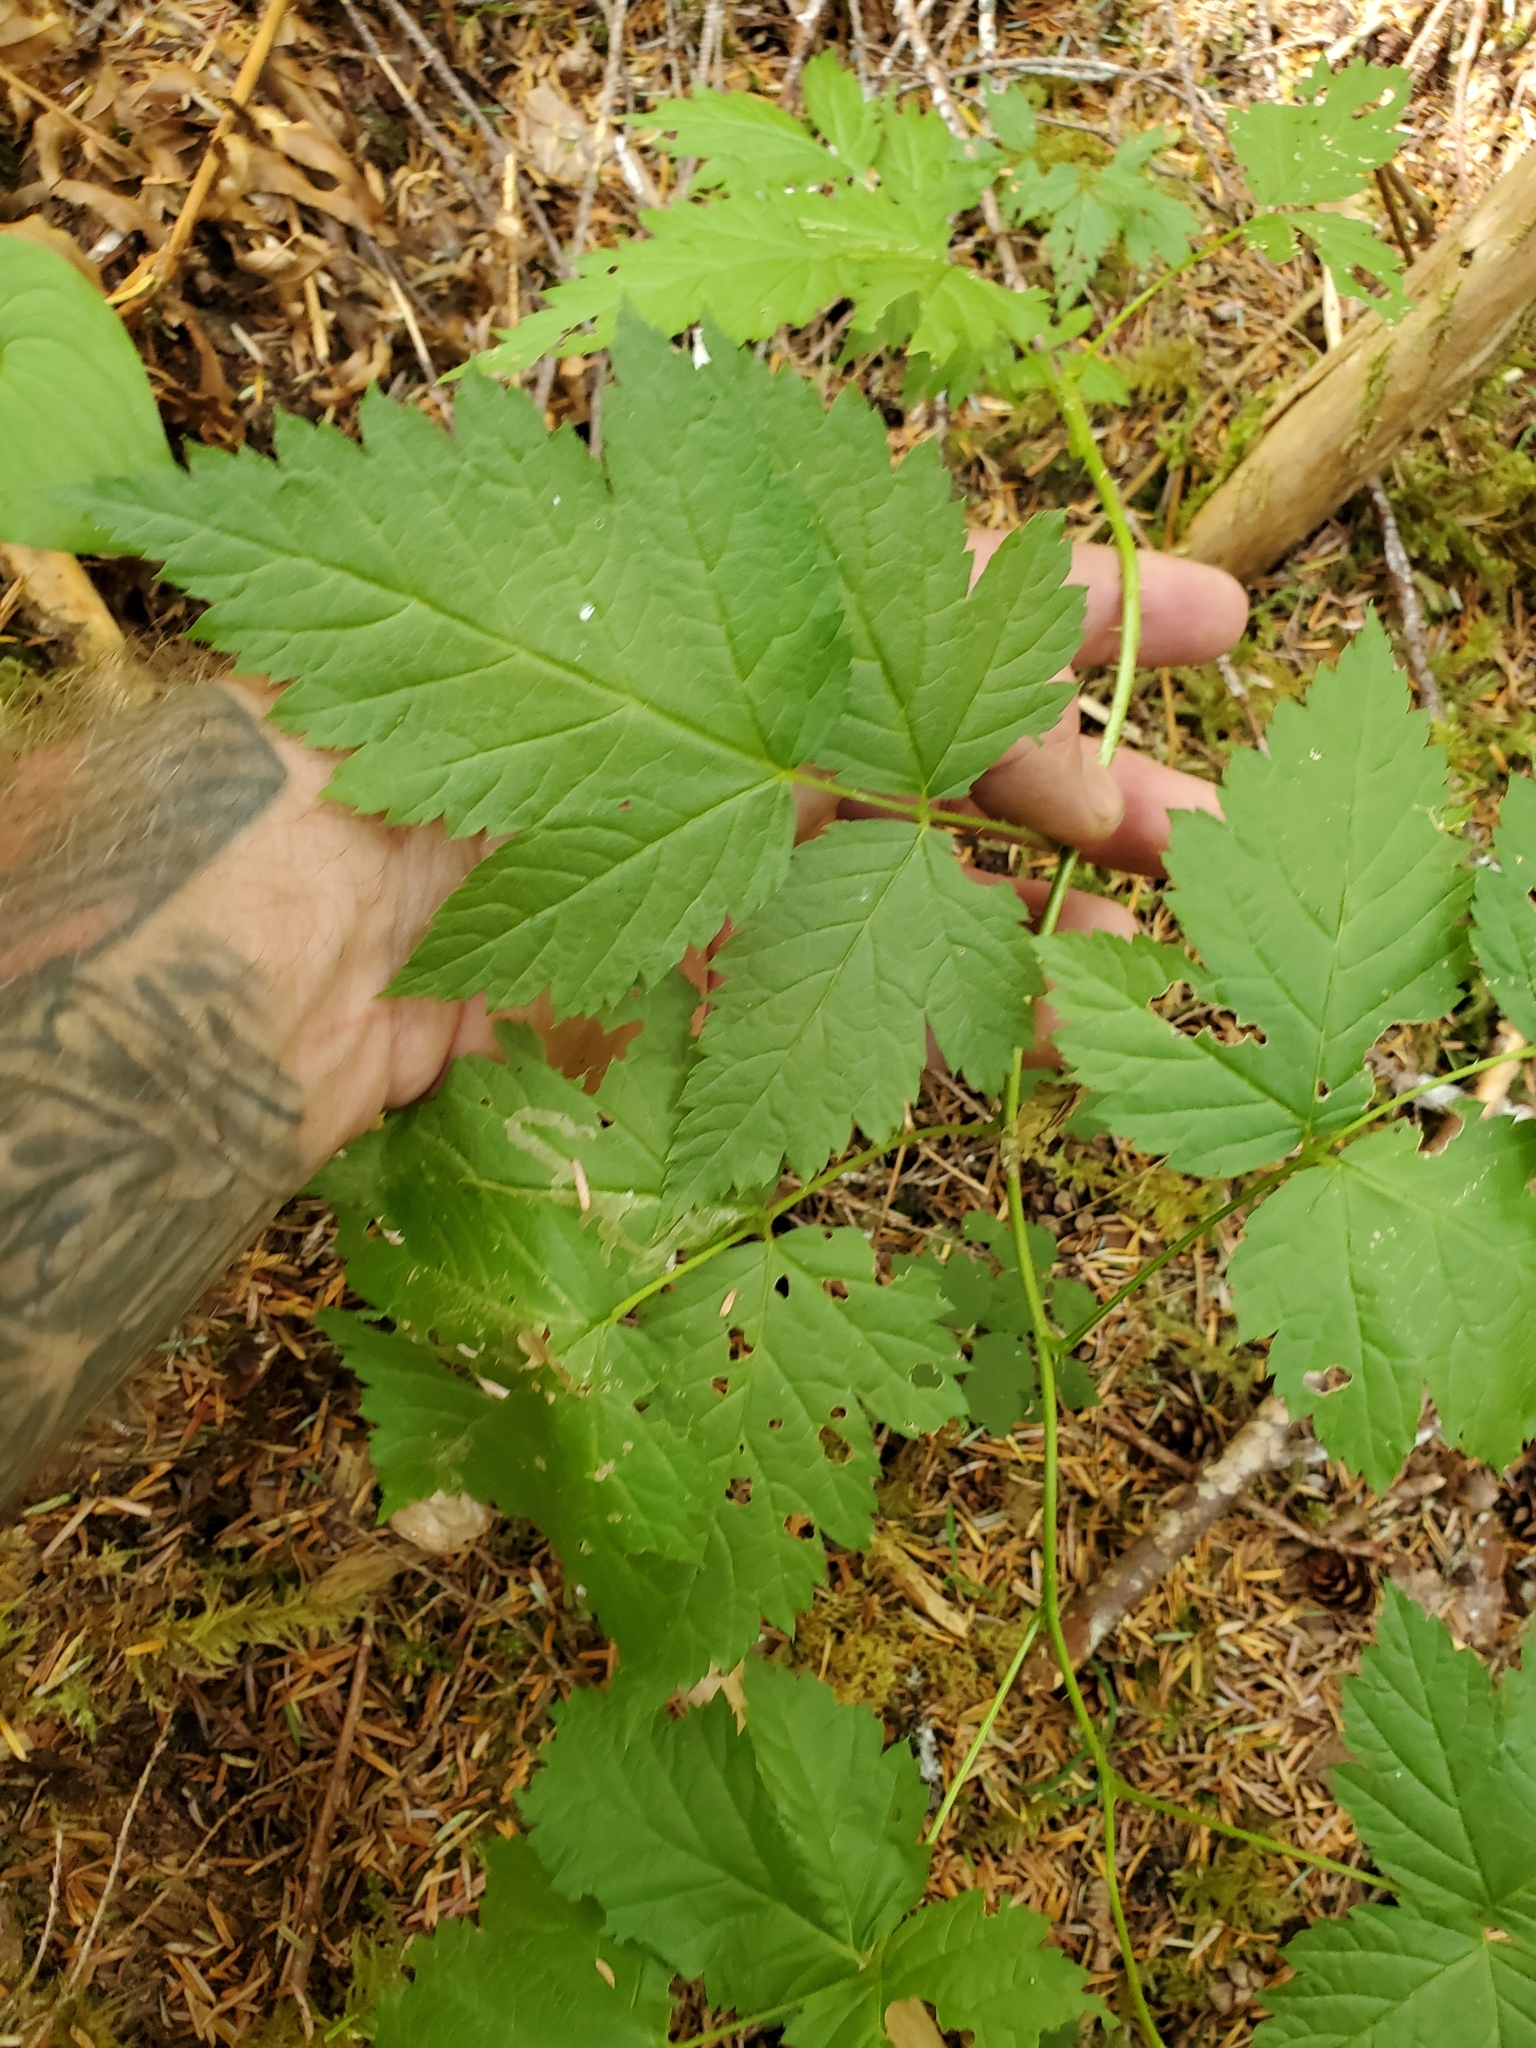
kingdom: Plantae
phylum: Tracheophyta
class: Magnoliopsida
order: Rosales
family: Rosaceae
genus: Rubus
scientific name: Rubus spectabilis
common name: Salmonberry
